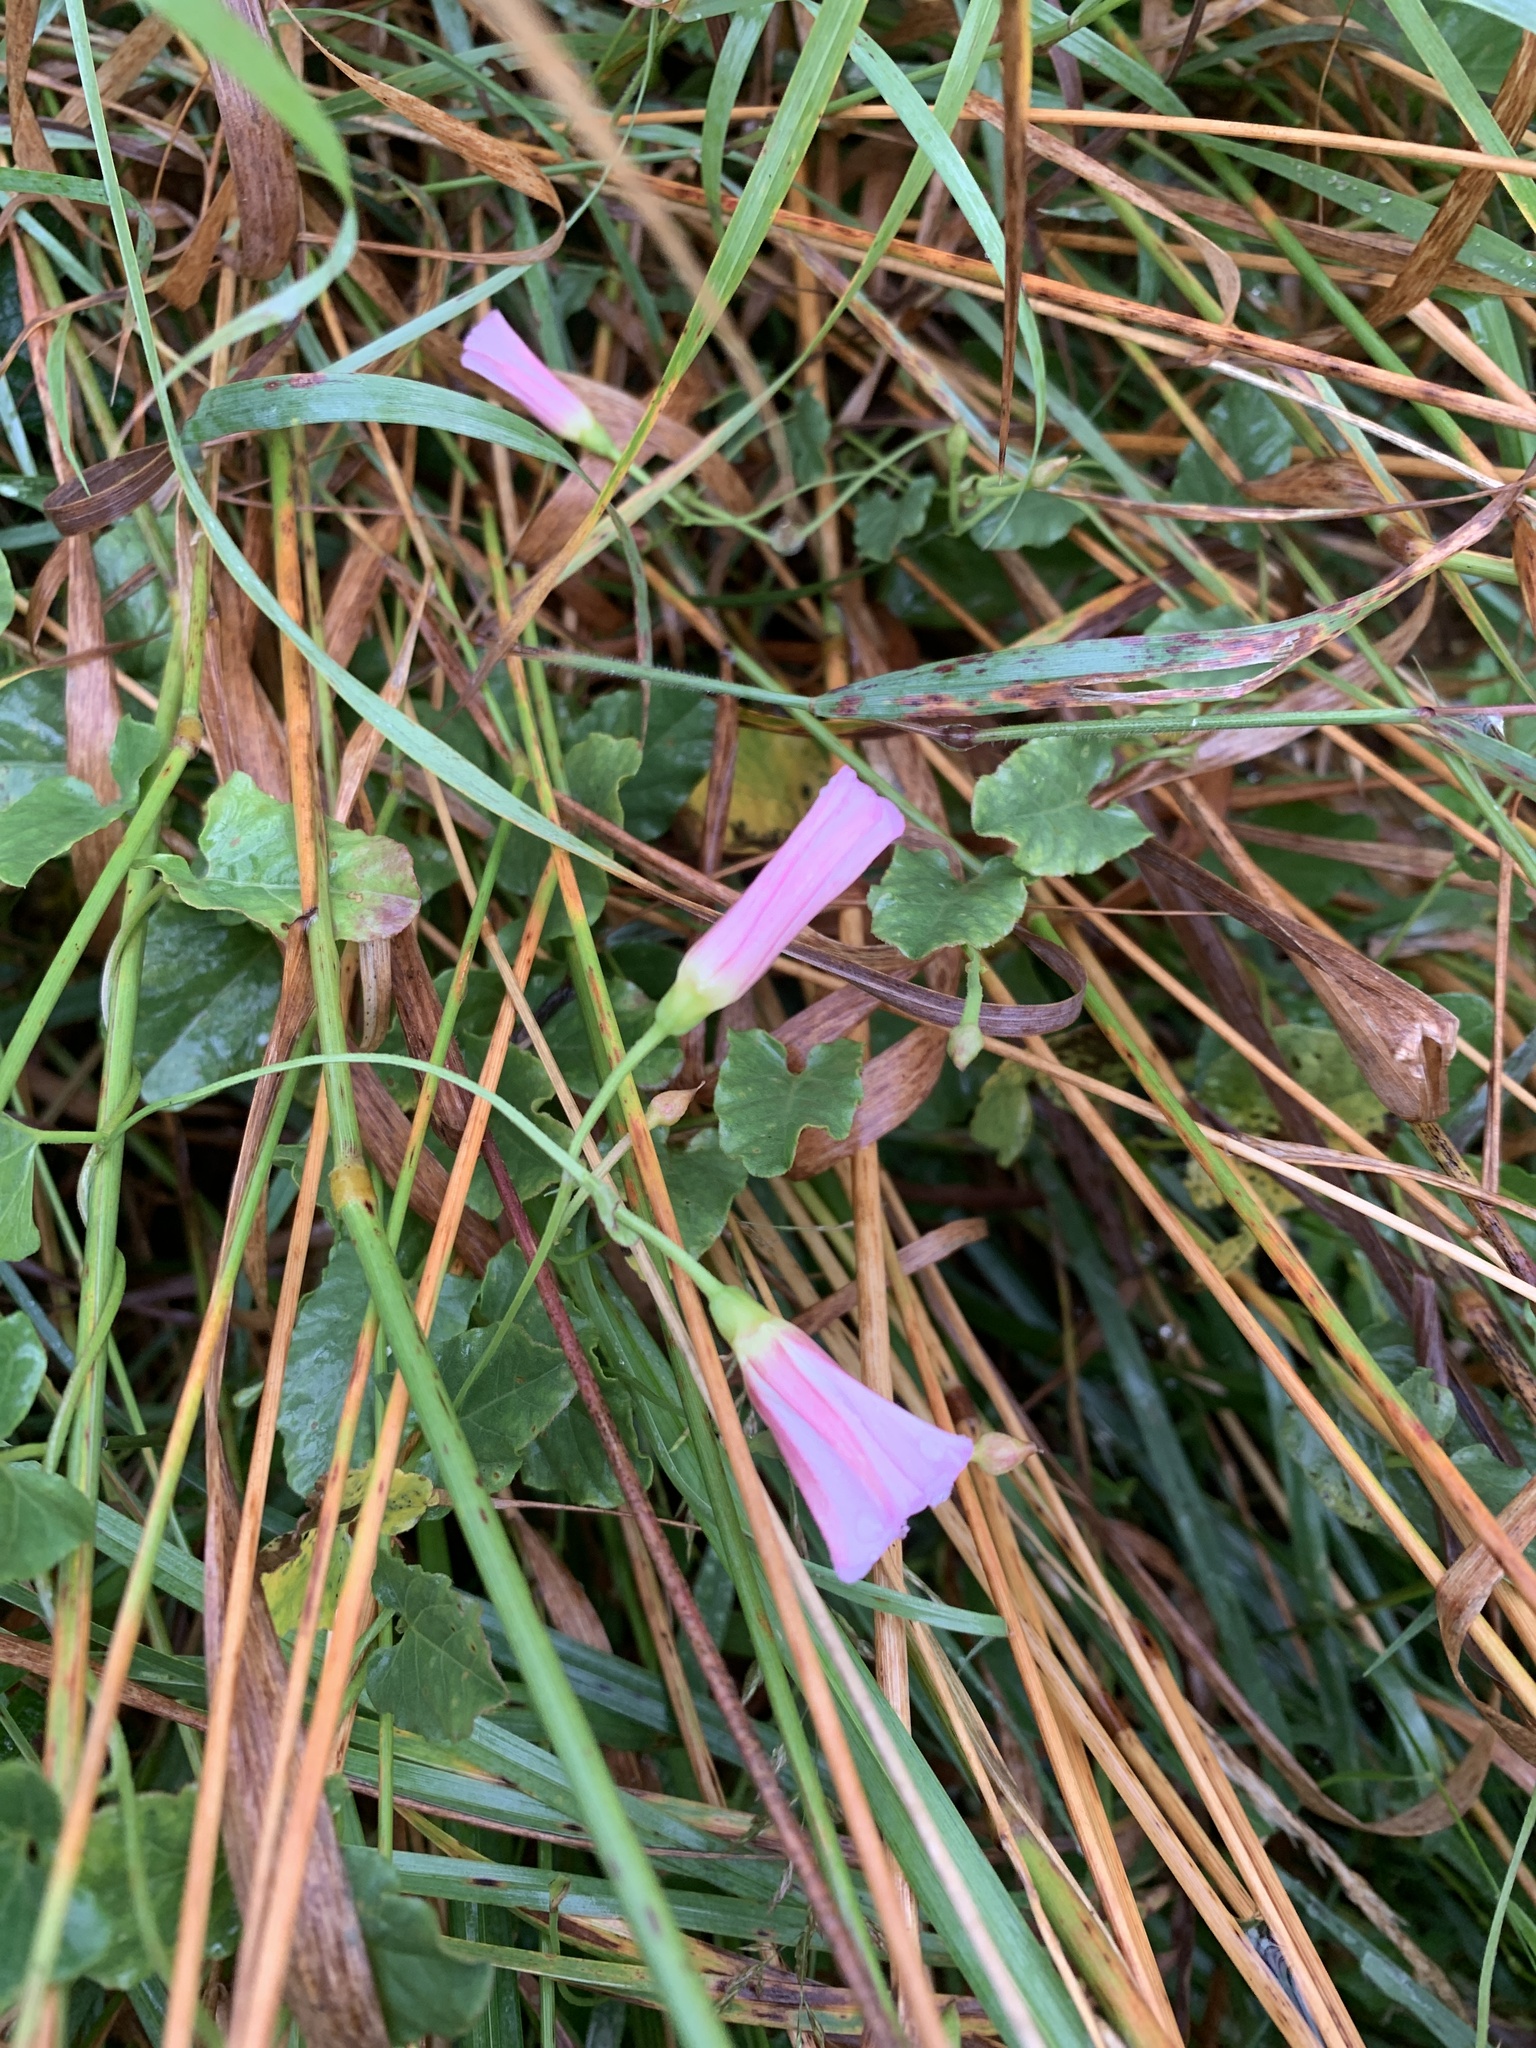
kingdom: Plantae
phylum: Tracheophyta
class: Magnoliopsida
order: Solanales
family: Convolvulaceae
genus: Convolvulus
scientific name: Convolvulus arvensis
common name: Field bindweed
